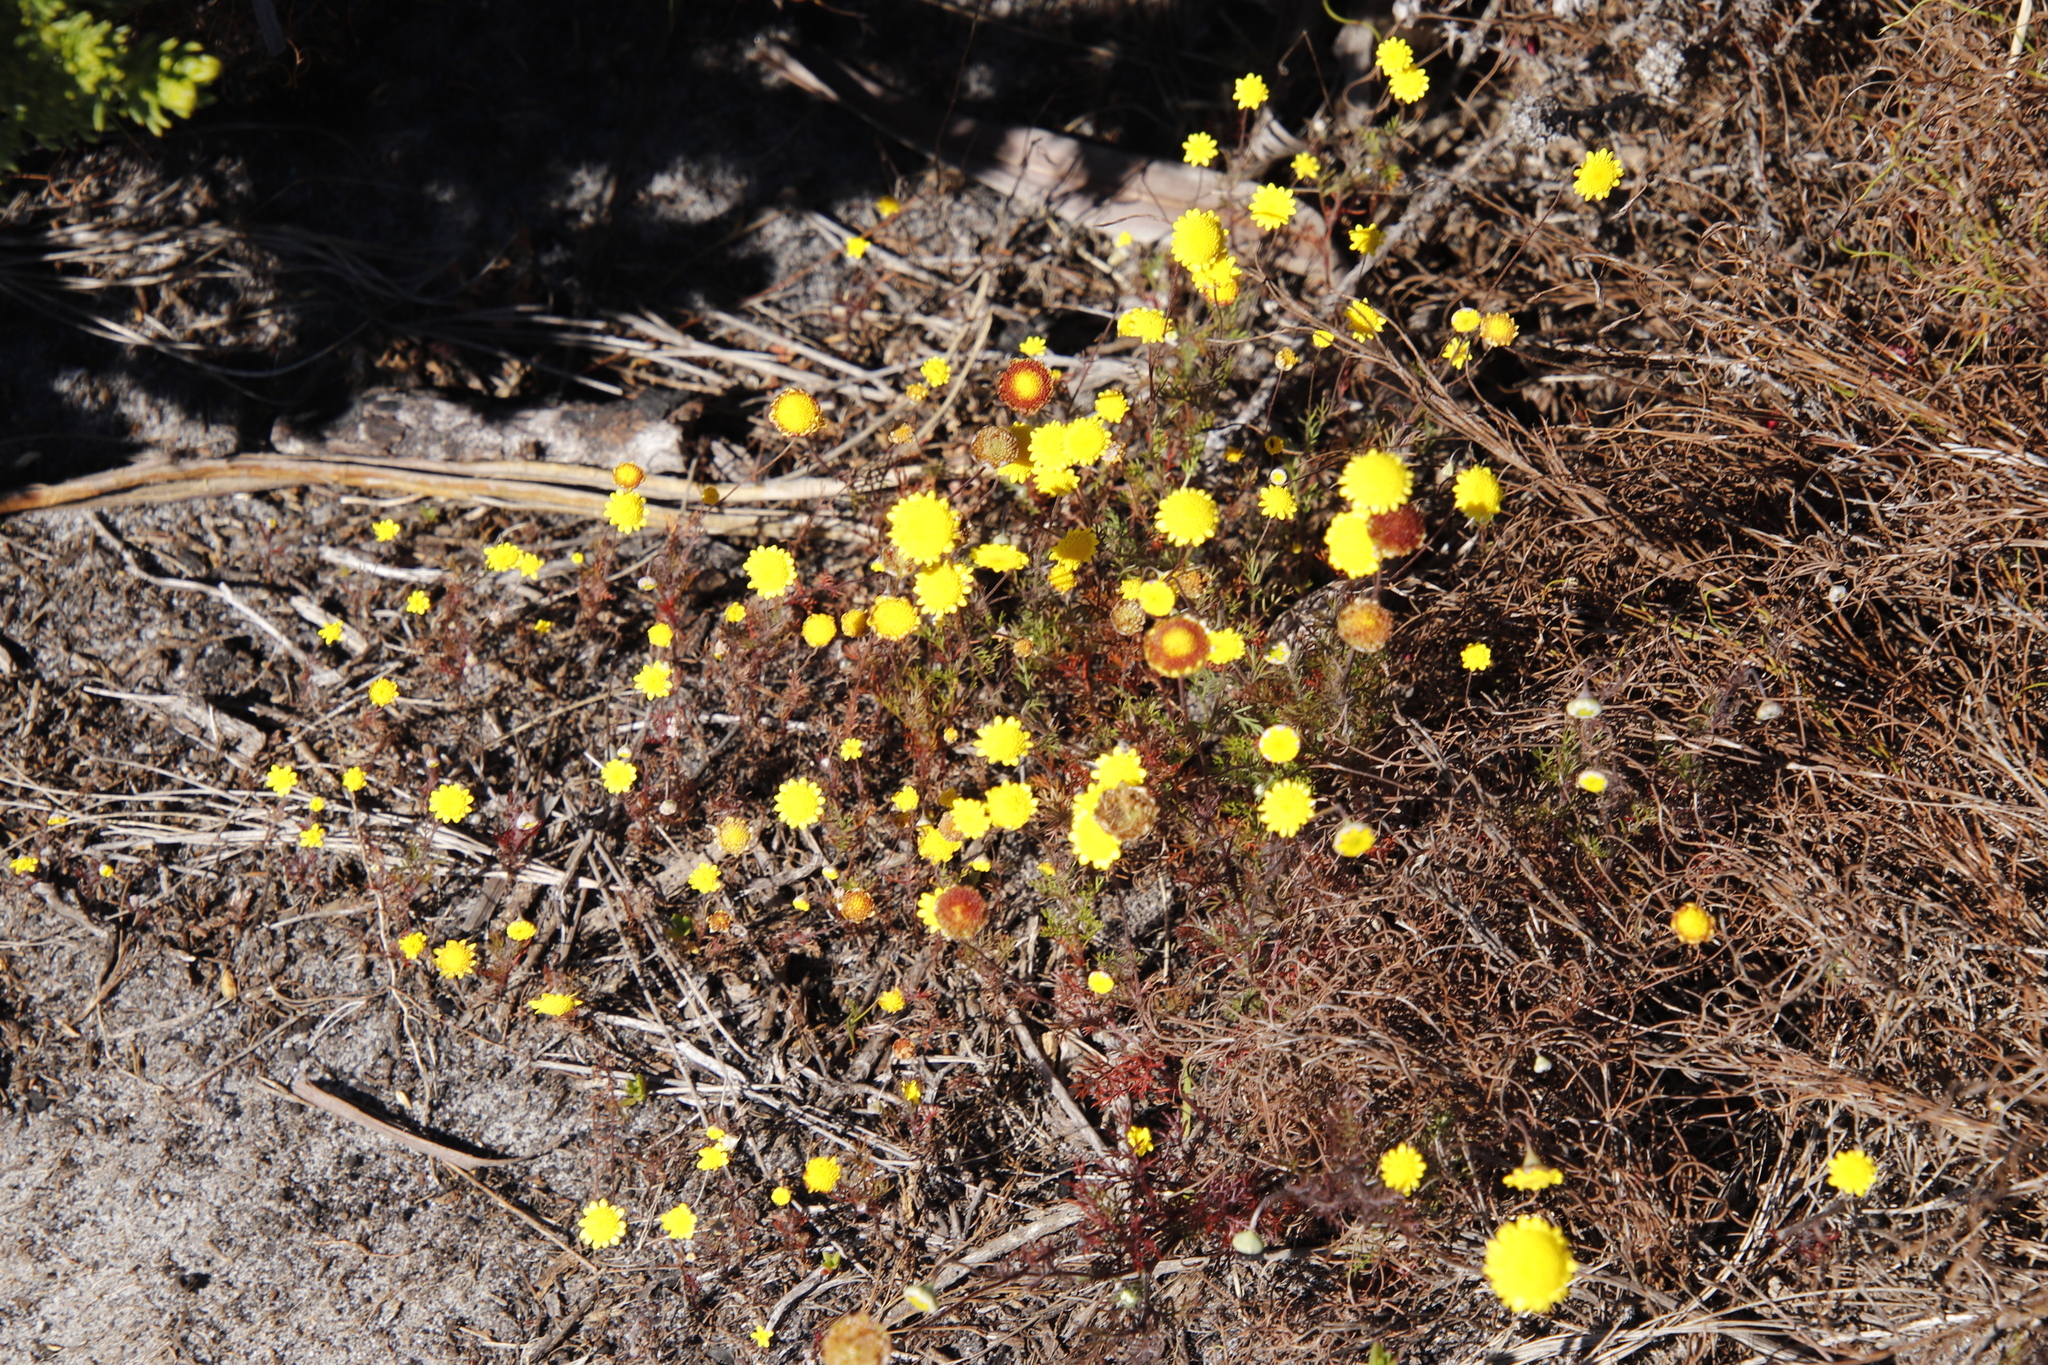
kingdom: Plantae
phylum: Tracheophyta
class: Magnoliopsida
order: Asterales
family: Asteraceae
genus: Cotula
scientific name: Cotula pruinosa
